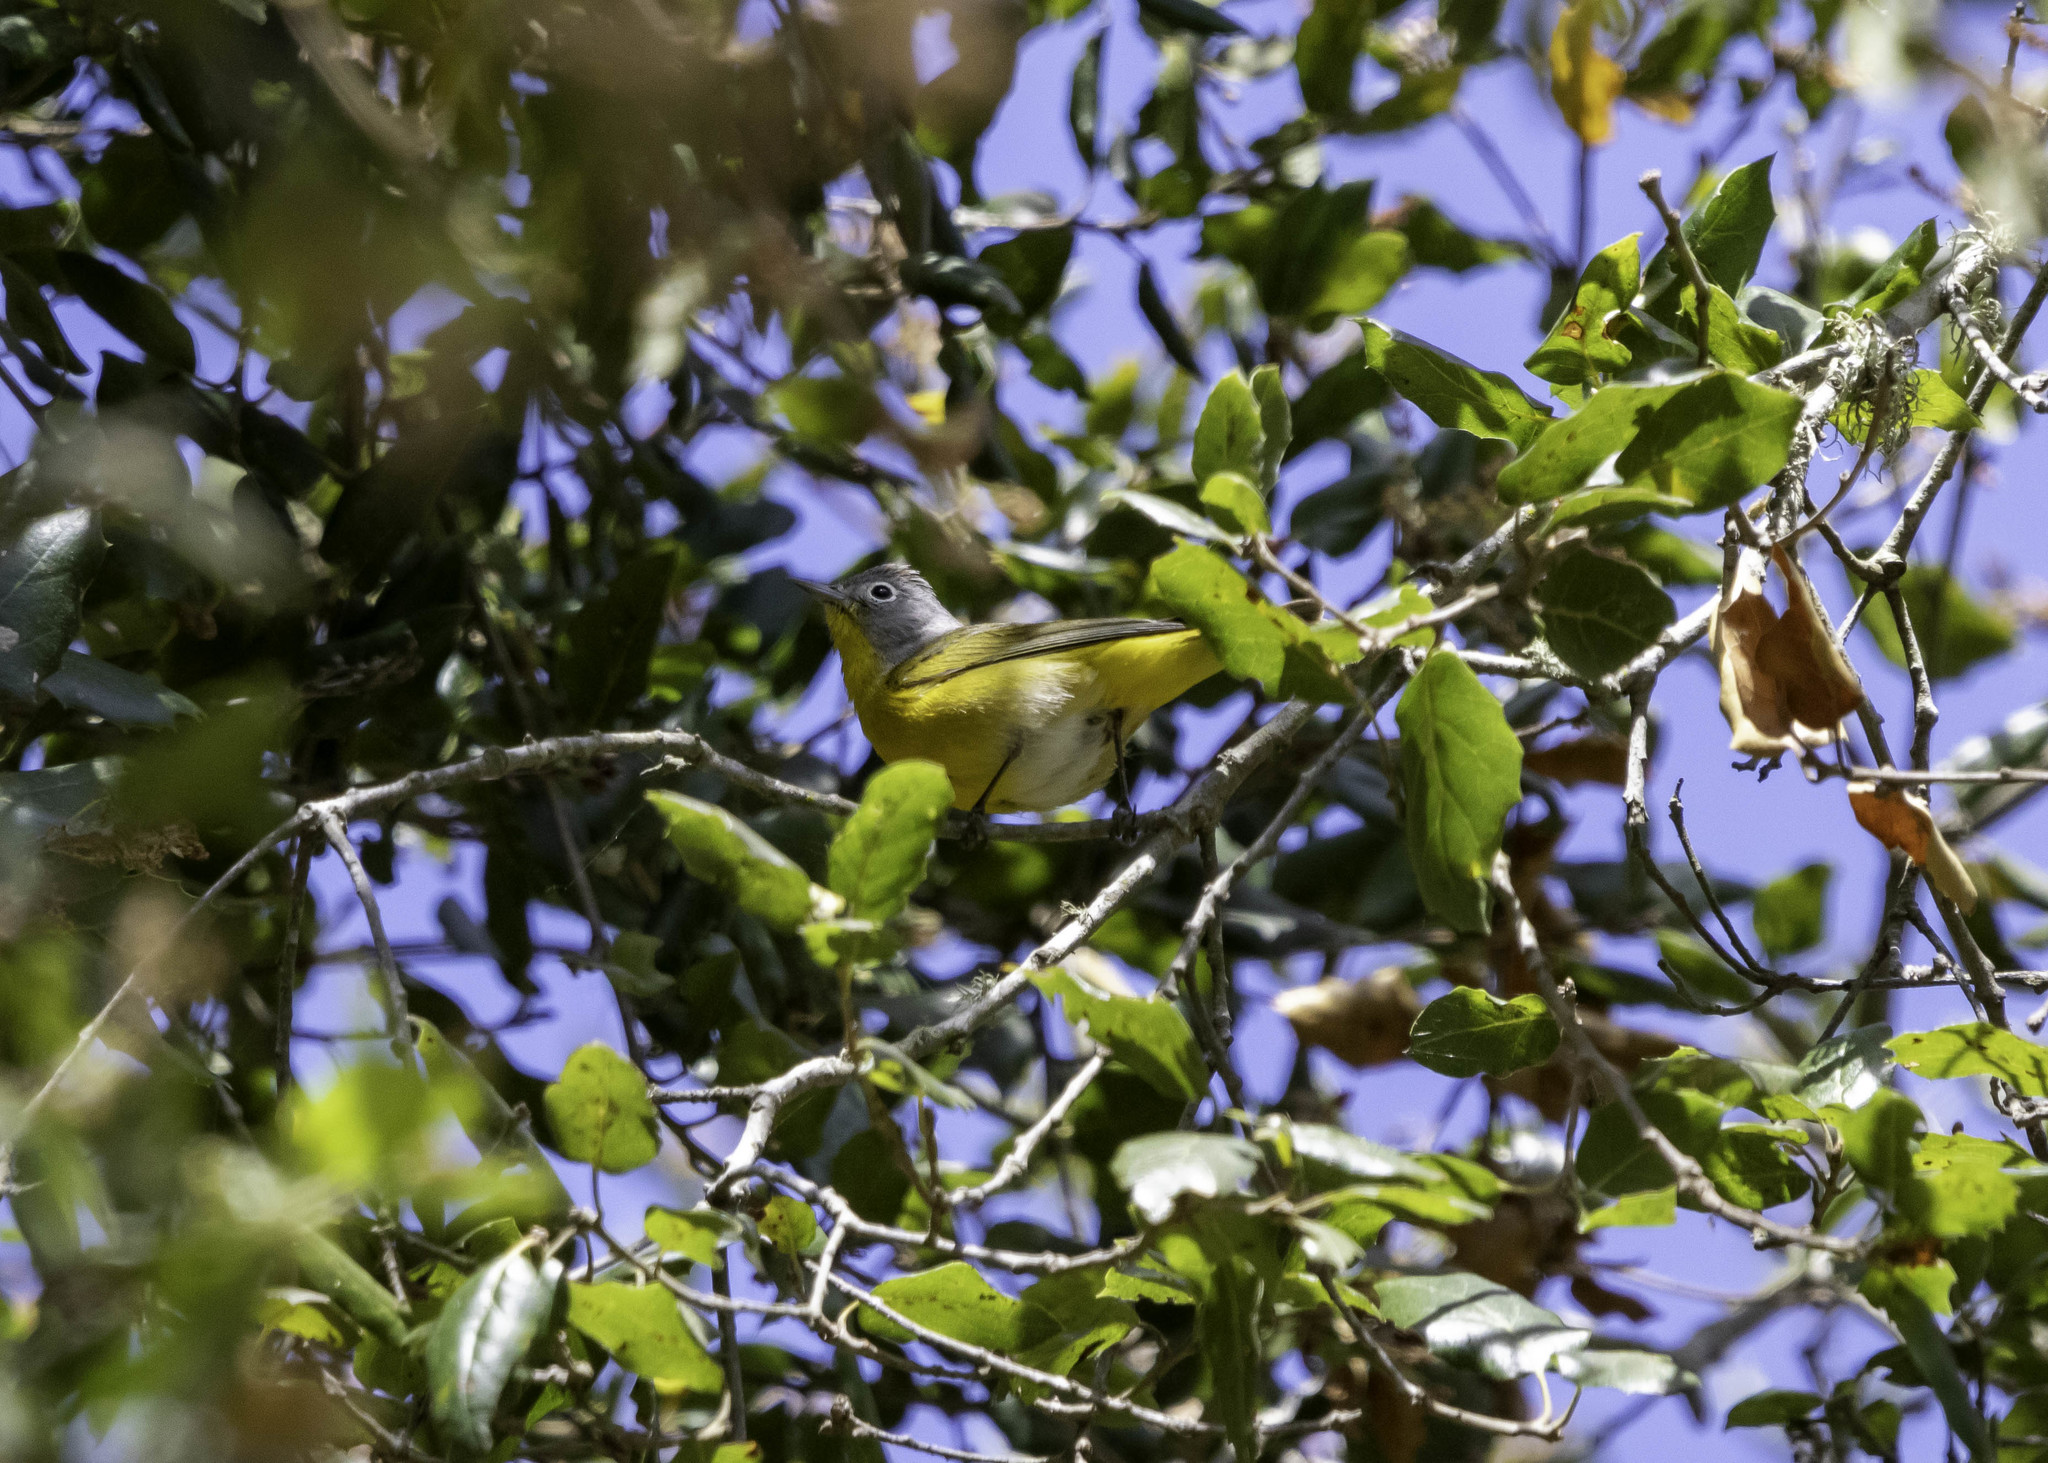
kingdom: Animalia
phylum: Chordata
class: Aves
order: Passeriformes
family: Parulidae
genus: Leiothlypis
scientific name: Leiothlypis ruficapilla
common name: Nashville warbler
